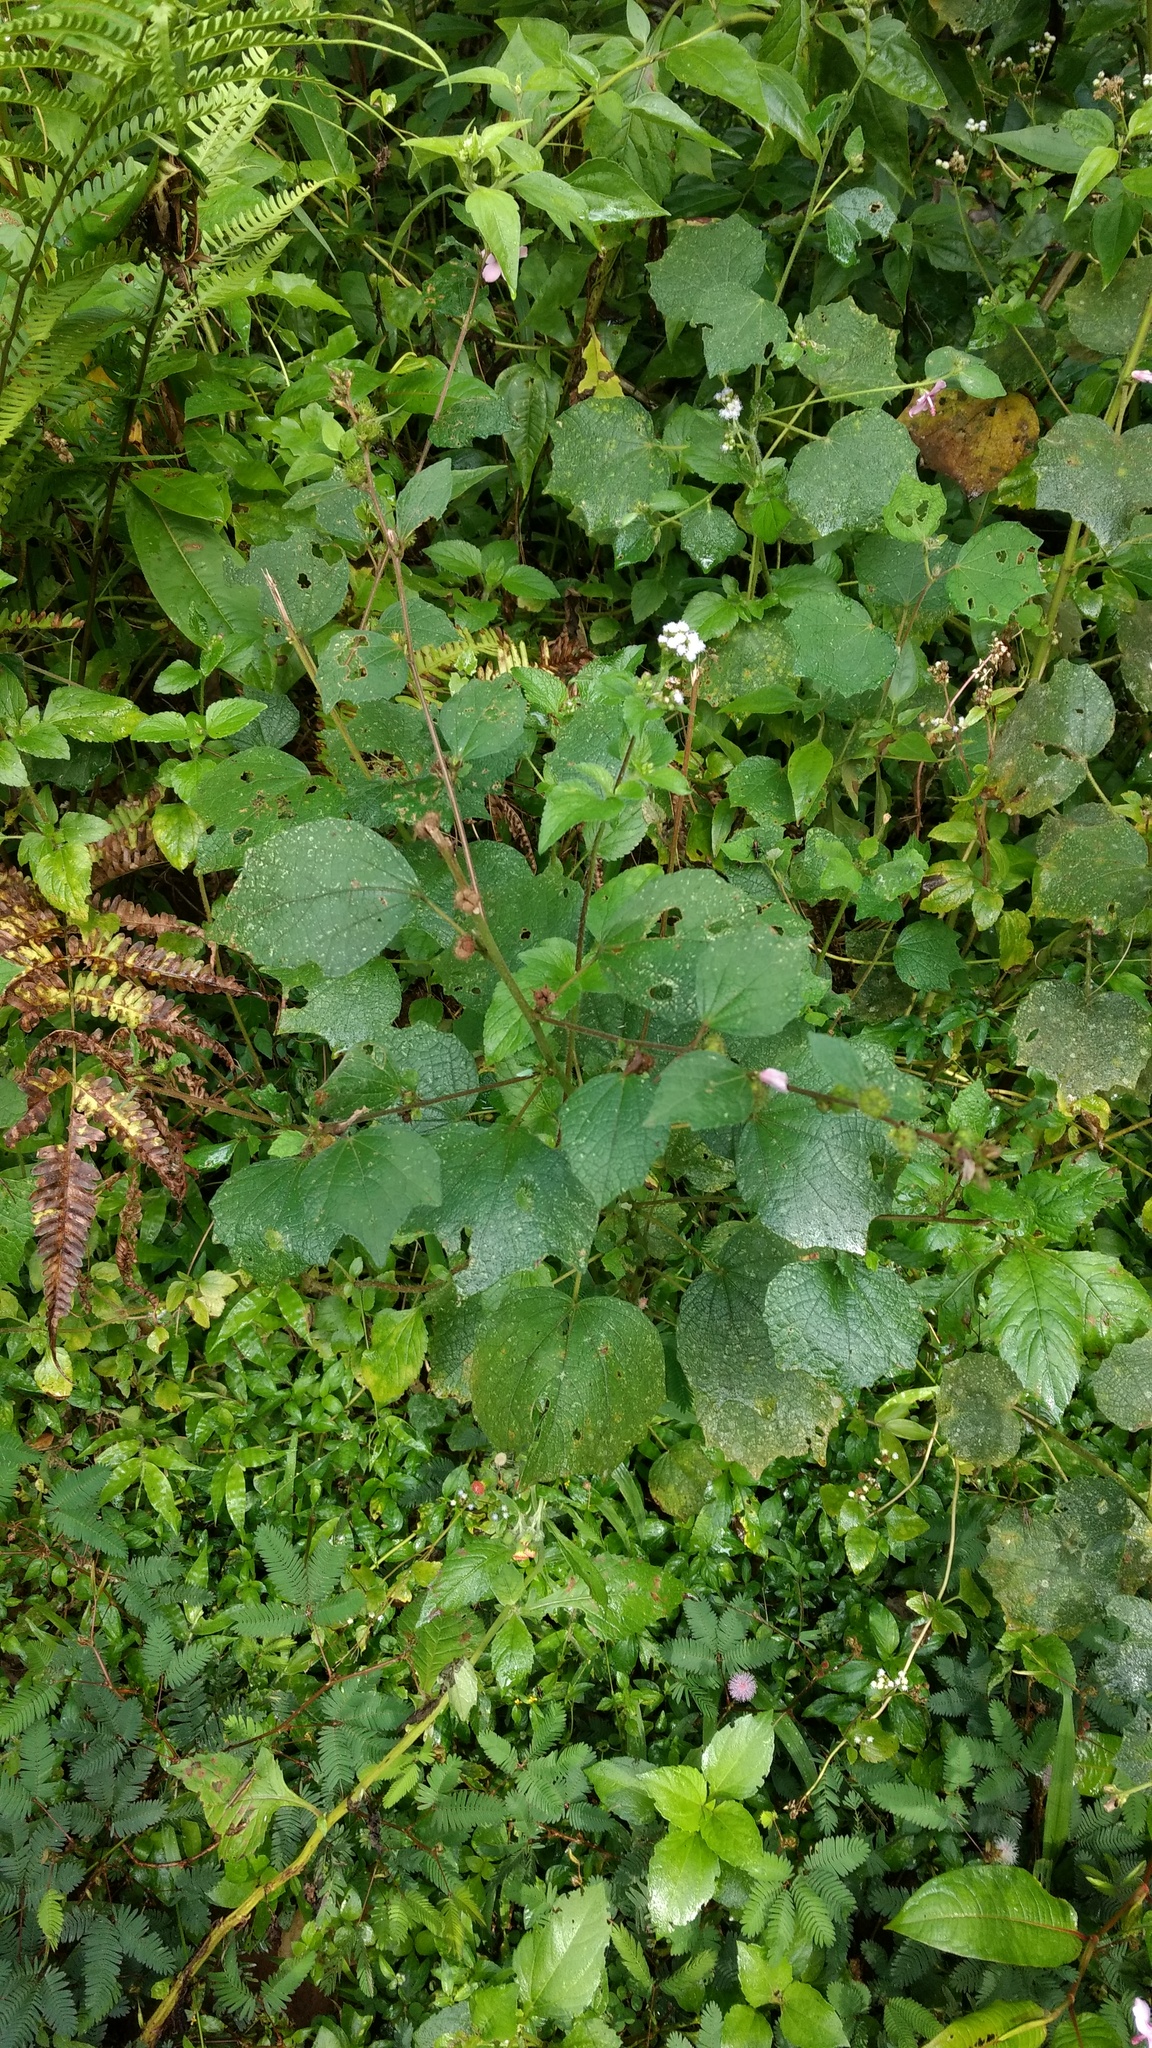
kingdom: Plantae
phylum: Tracheophyta
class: Magnoliopsida
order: Malvales
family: Malvaceae
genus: Urena
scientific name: Urena lobata
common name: Caesarweed
